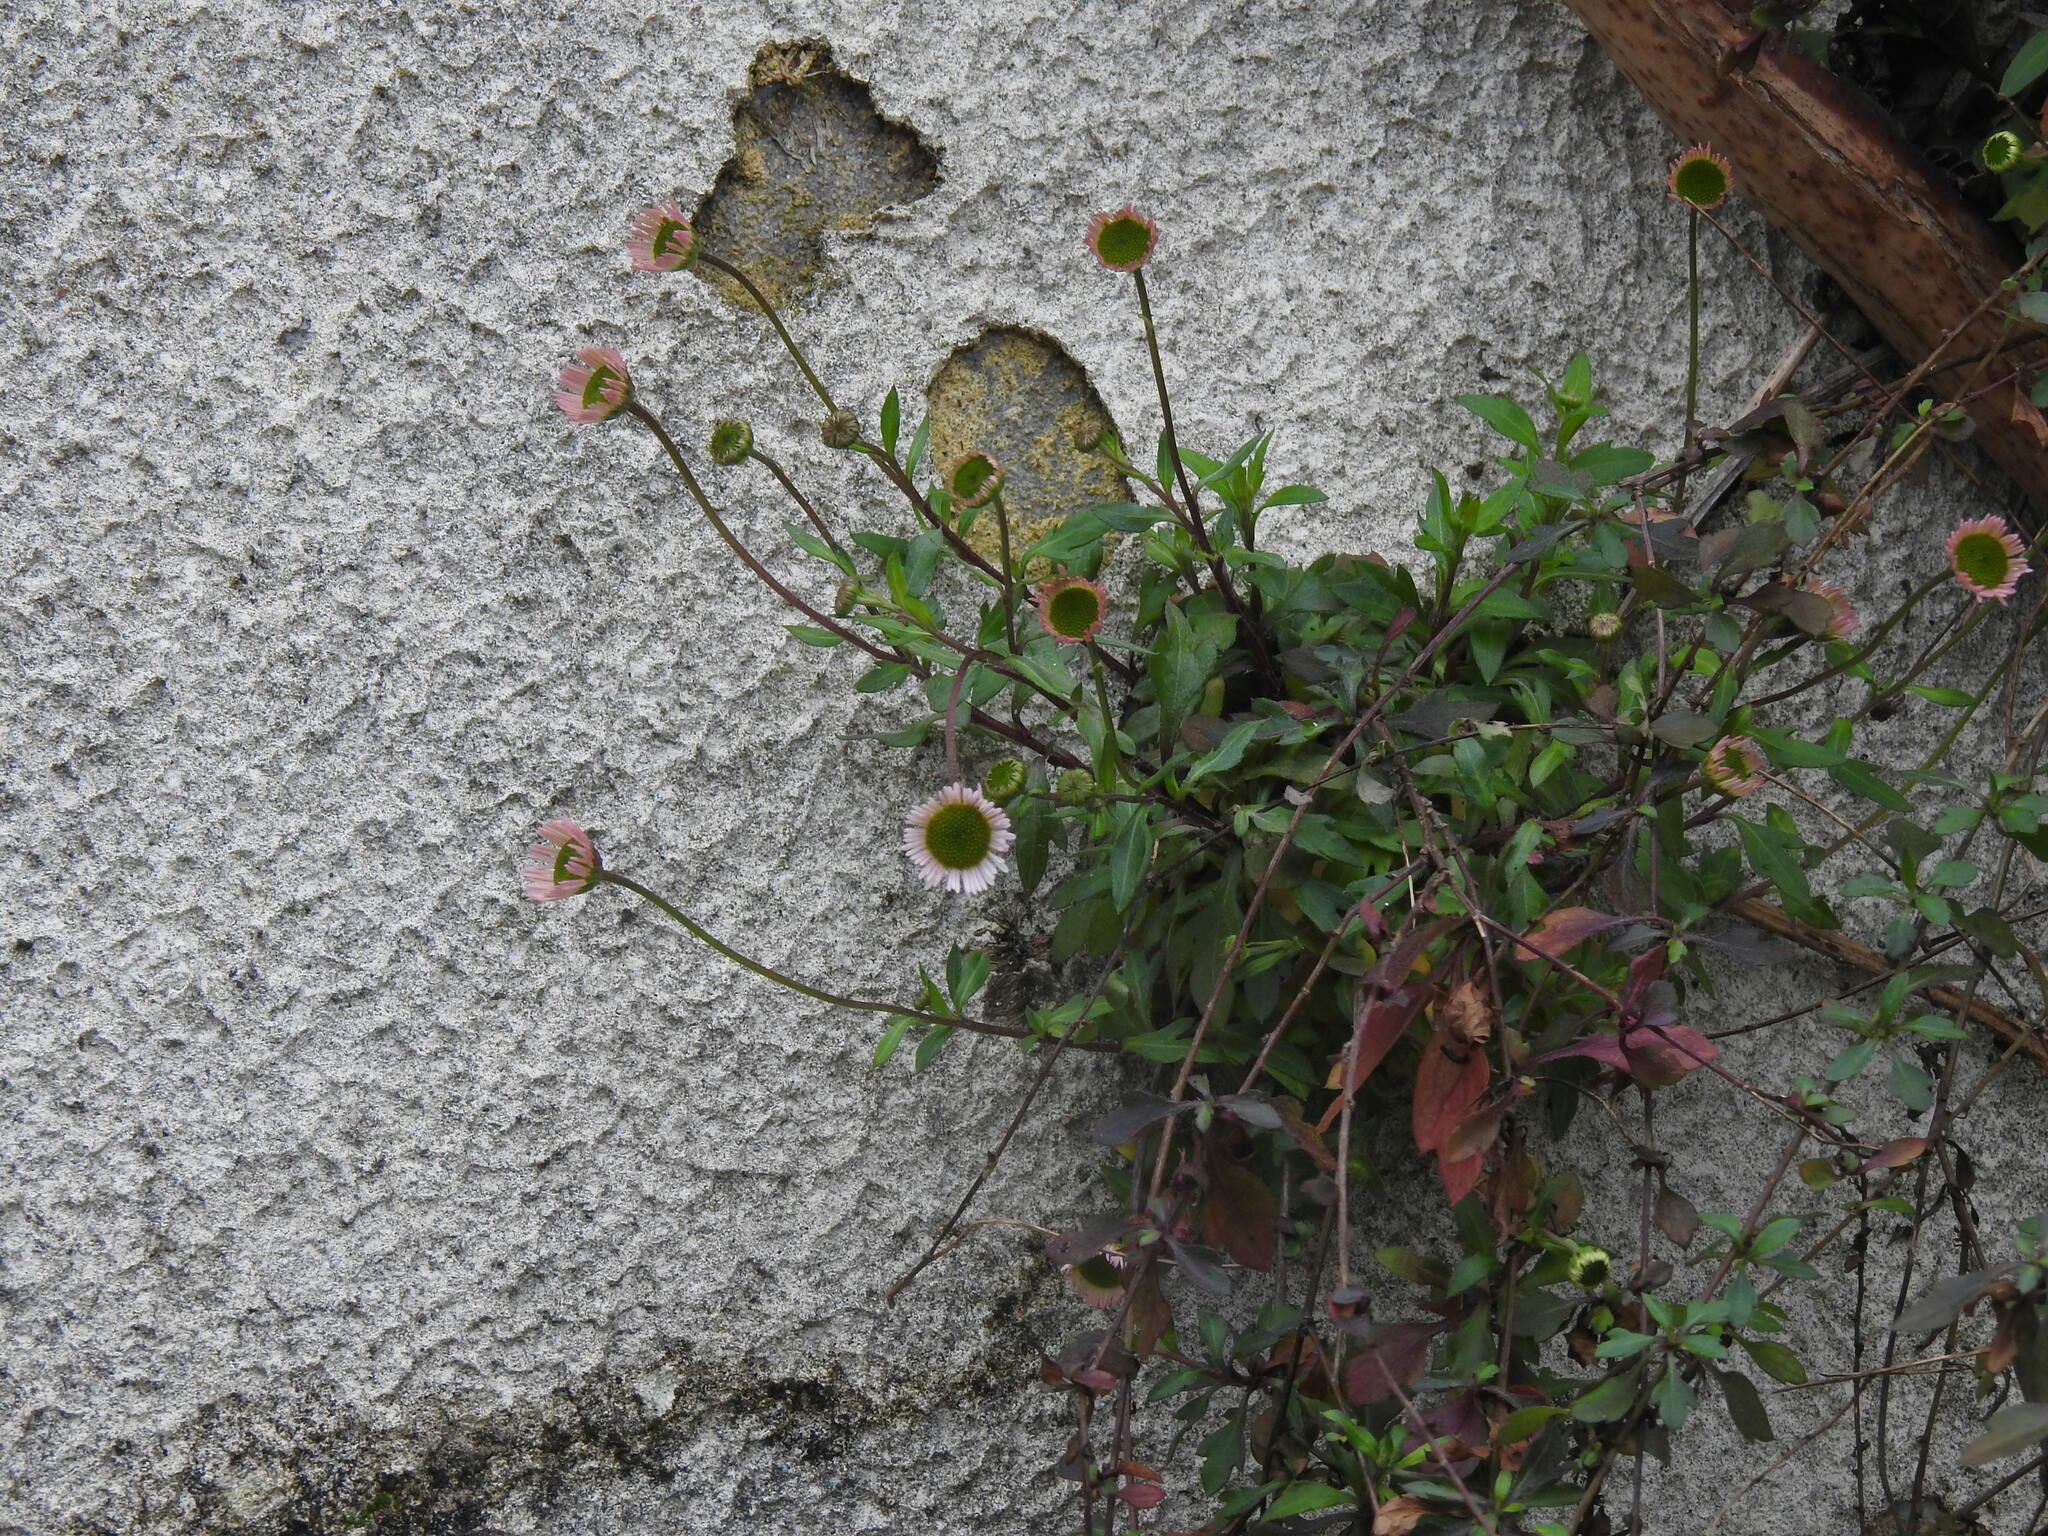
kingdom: Plantae
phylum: Tracheophyta
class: Magnoliopsida
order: Asterales
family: Asteraceae
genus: Erigeron
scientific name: Erigeron karvinskianus
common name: Mexican fleabane
